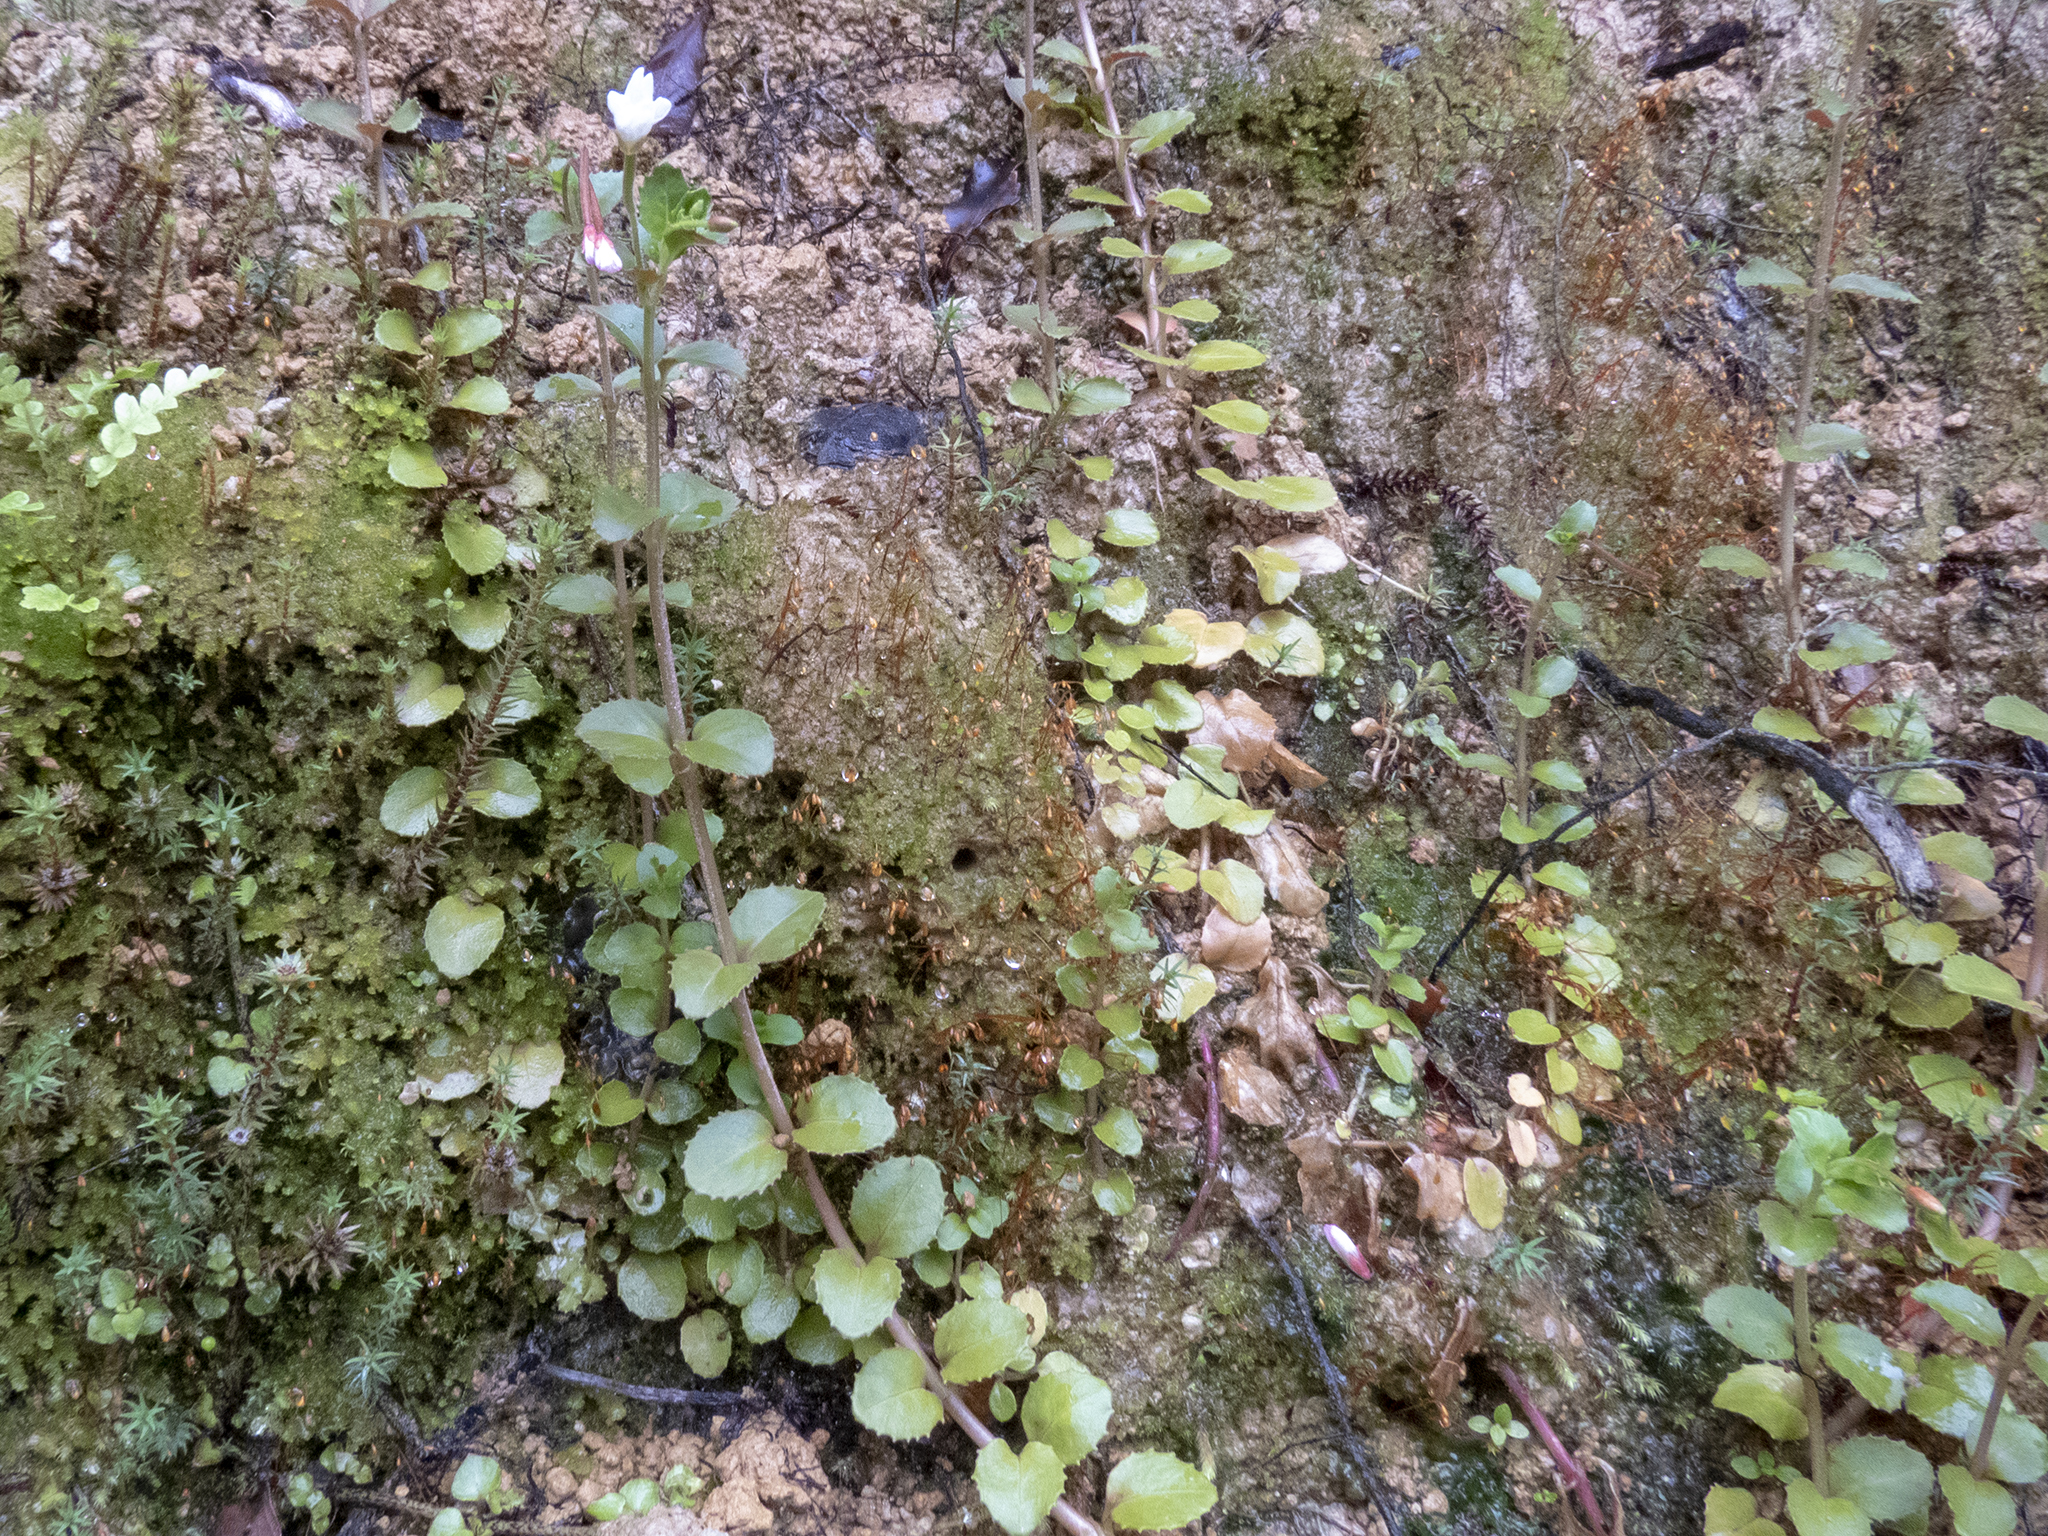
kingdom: Plantae
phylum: Tracheophyta
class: Magnoliopsida
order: Myrtales
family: Onagraceae
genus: Epilobium
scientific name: Epilobium rotundifolium
